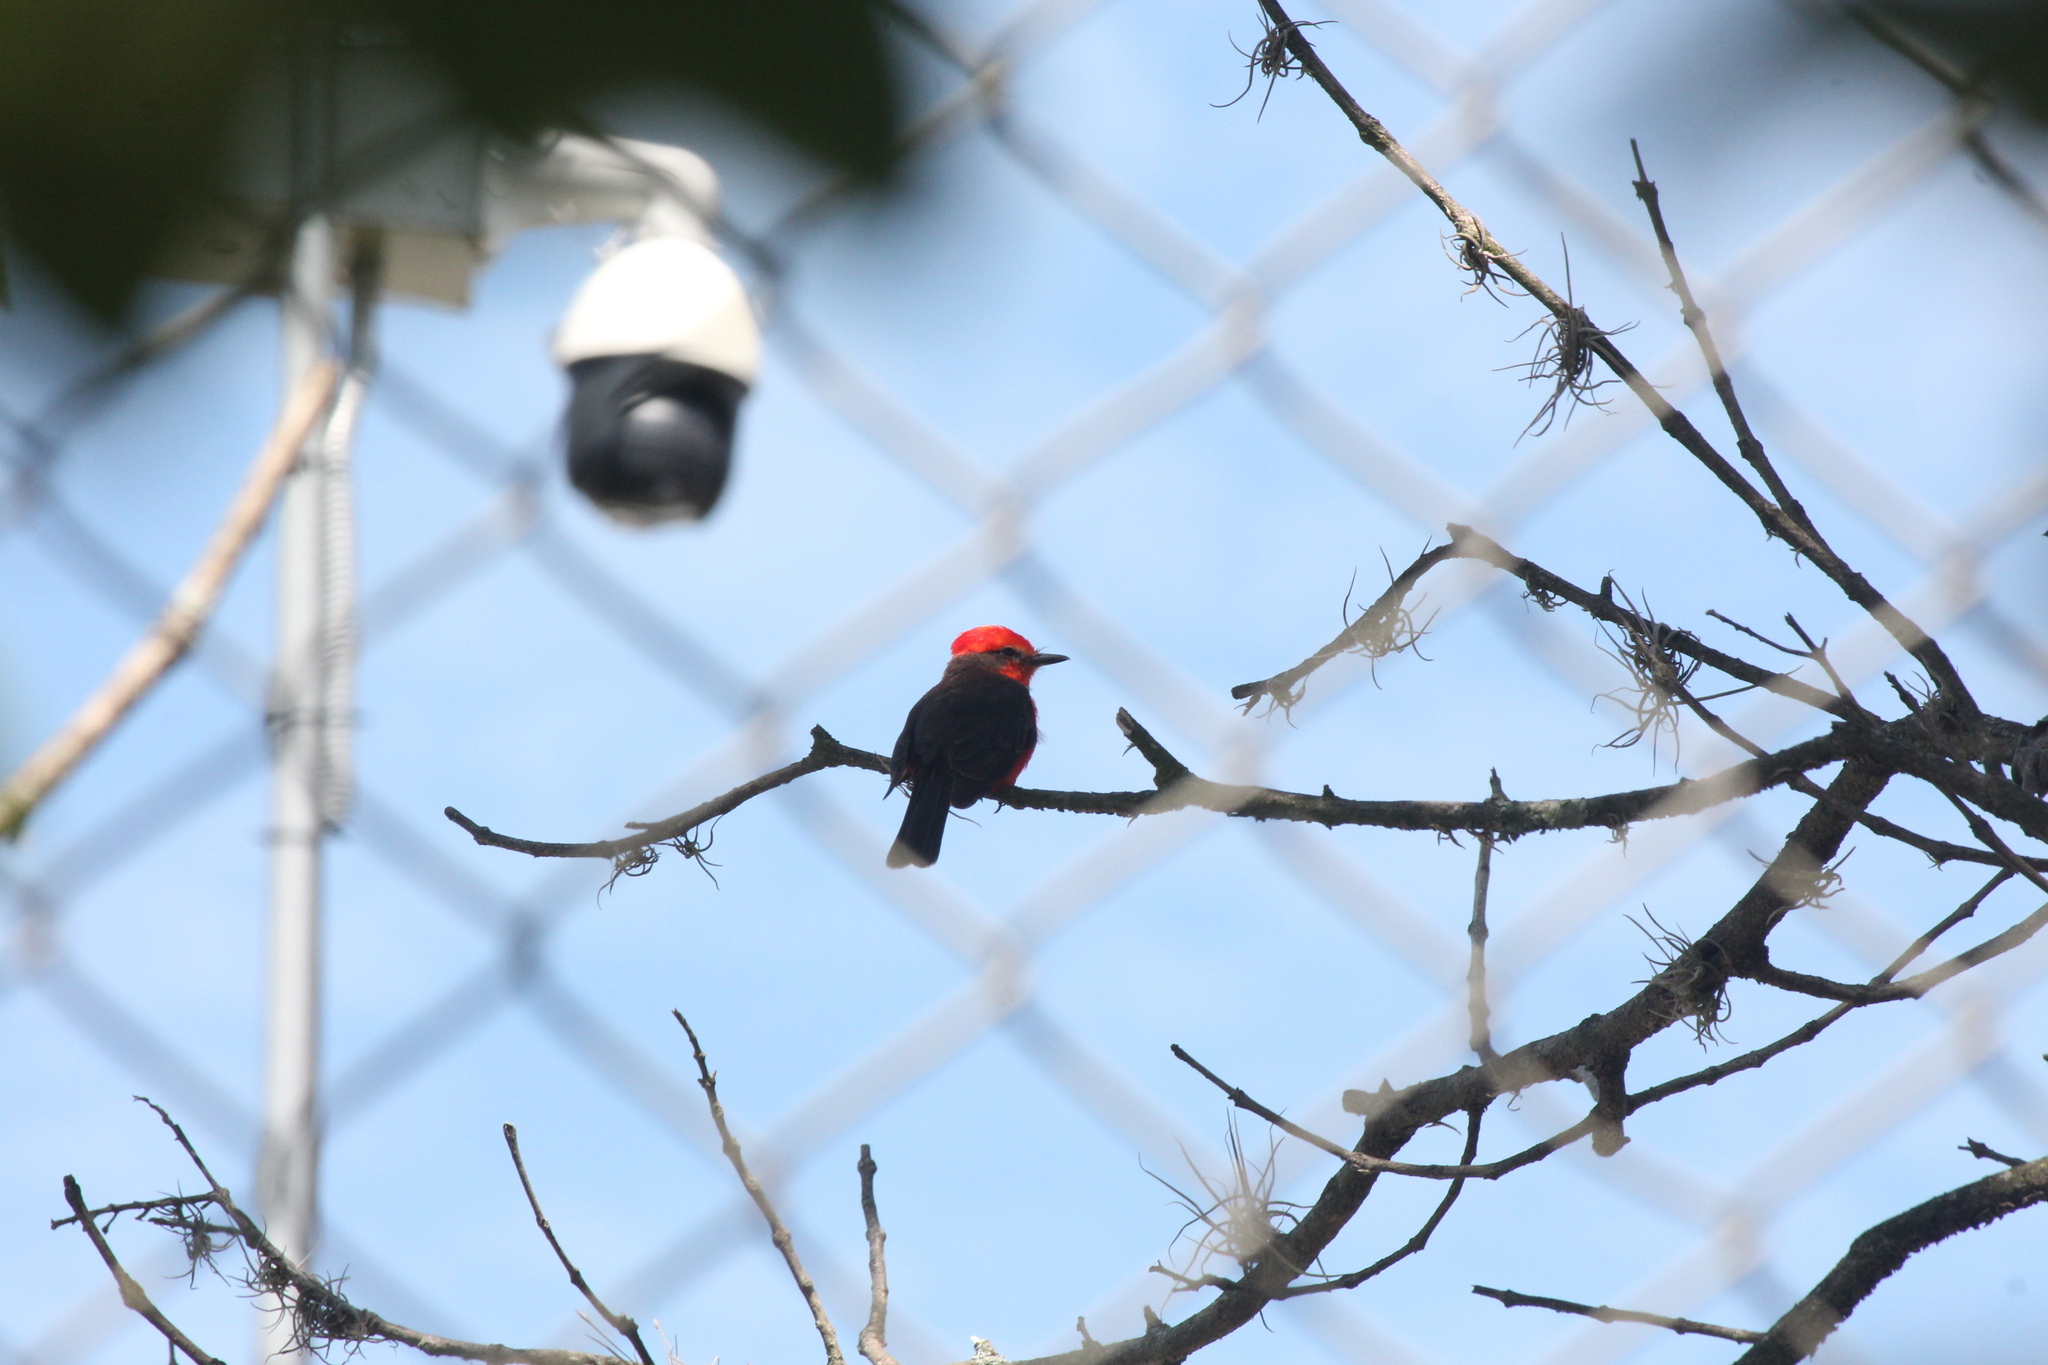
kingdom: Animalia
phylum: Chordata
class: Aves
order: Passeriformes
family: Tyrannidae
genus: Pyrocephalus
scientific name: Pyrocephalus rubinus
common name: Vermilion flycatcher
